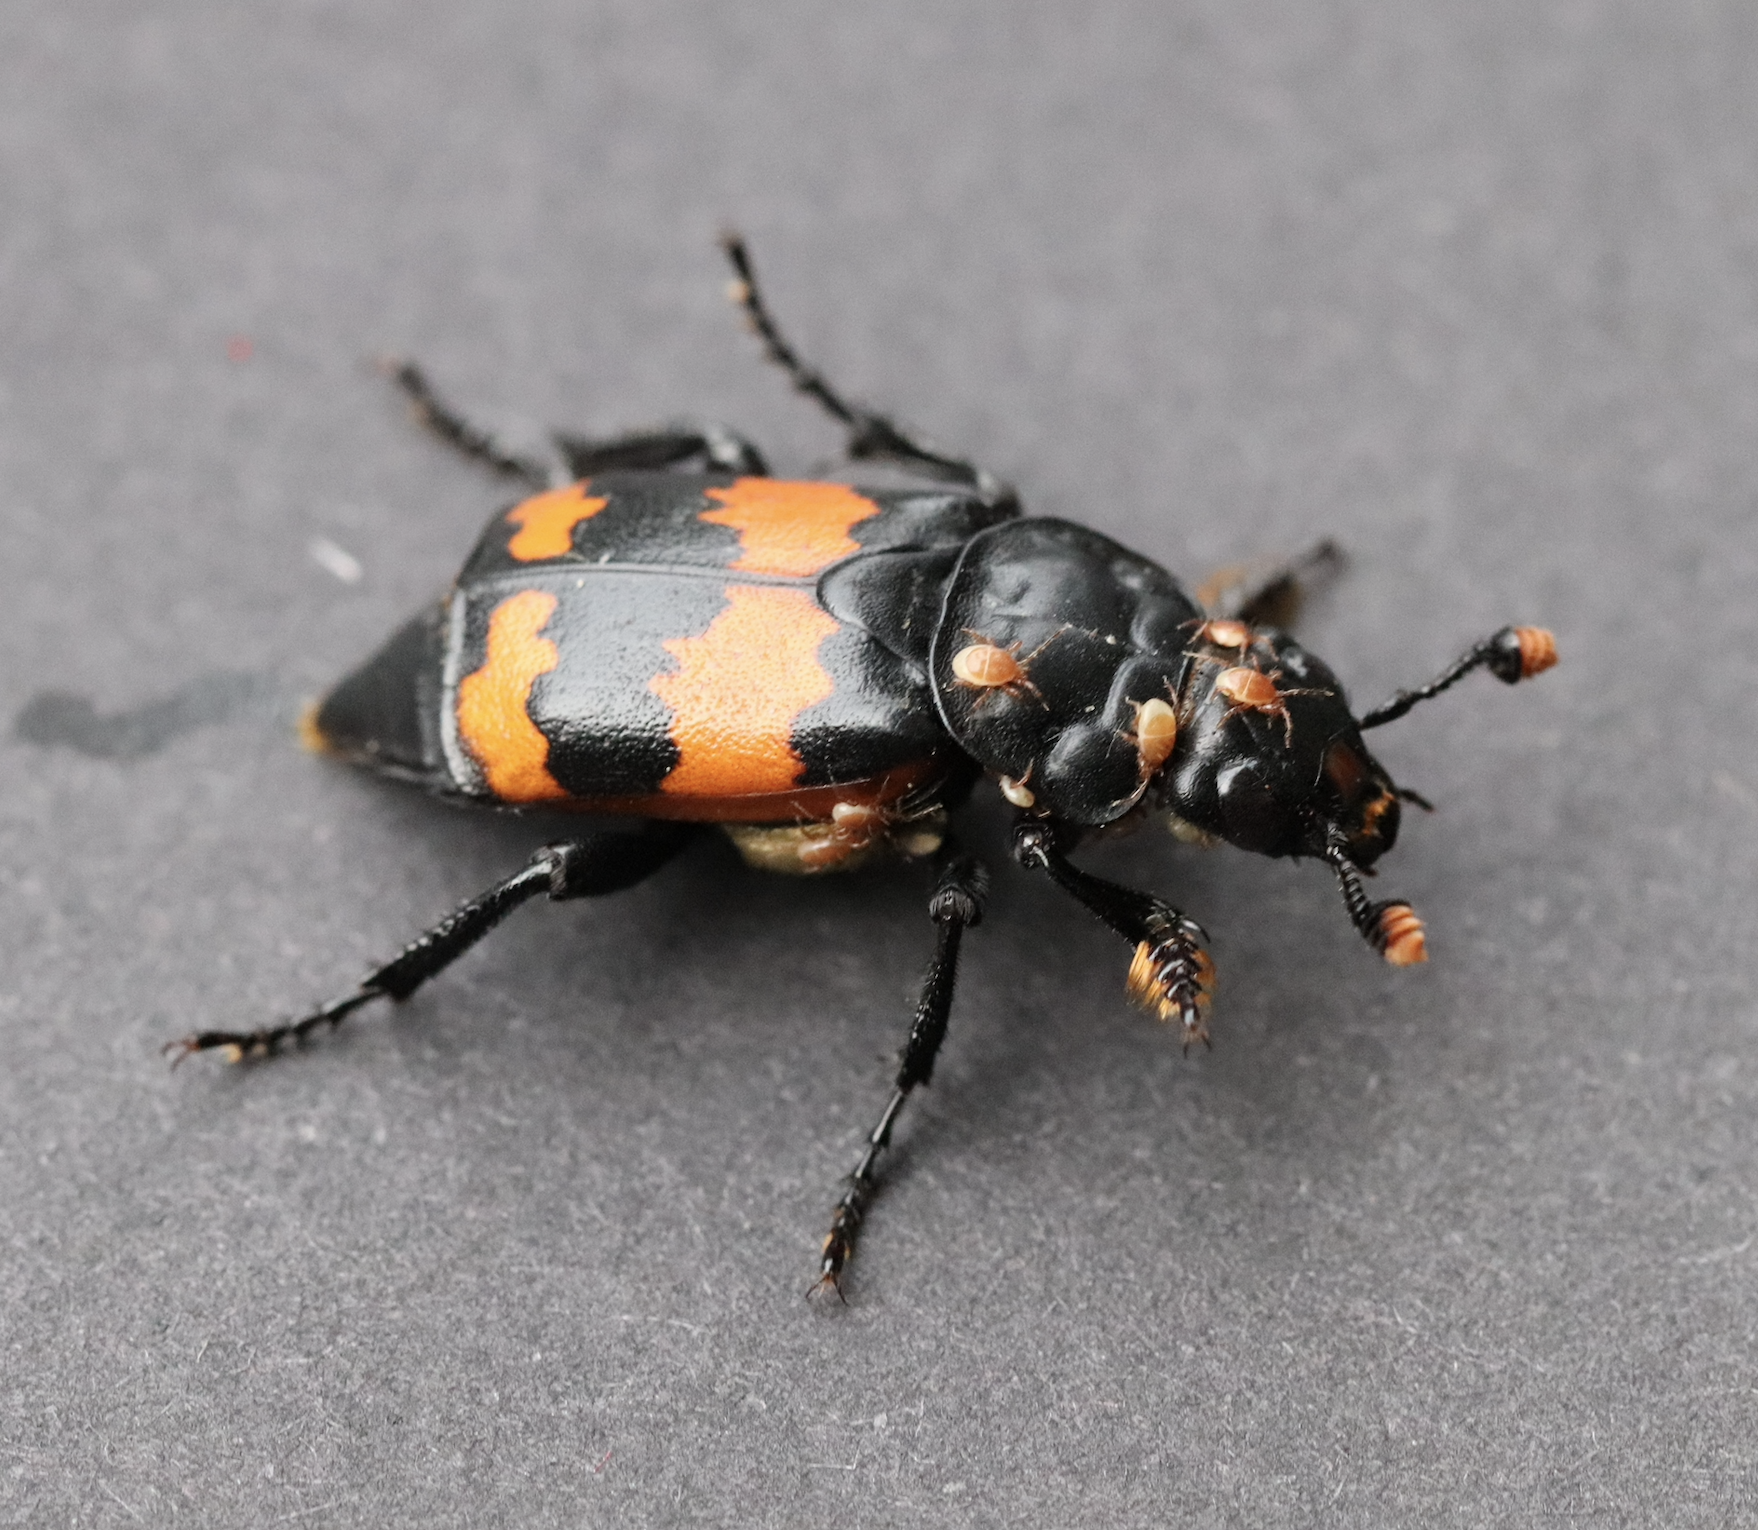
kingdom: Animalia
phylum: Arthropoda
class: Insecta
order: Coleoptera
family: Staphylinidae
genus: Nicrophorus
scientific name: Nicrophorus investigator
